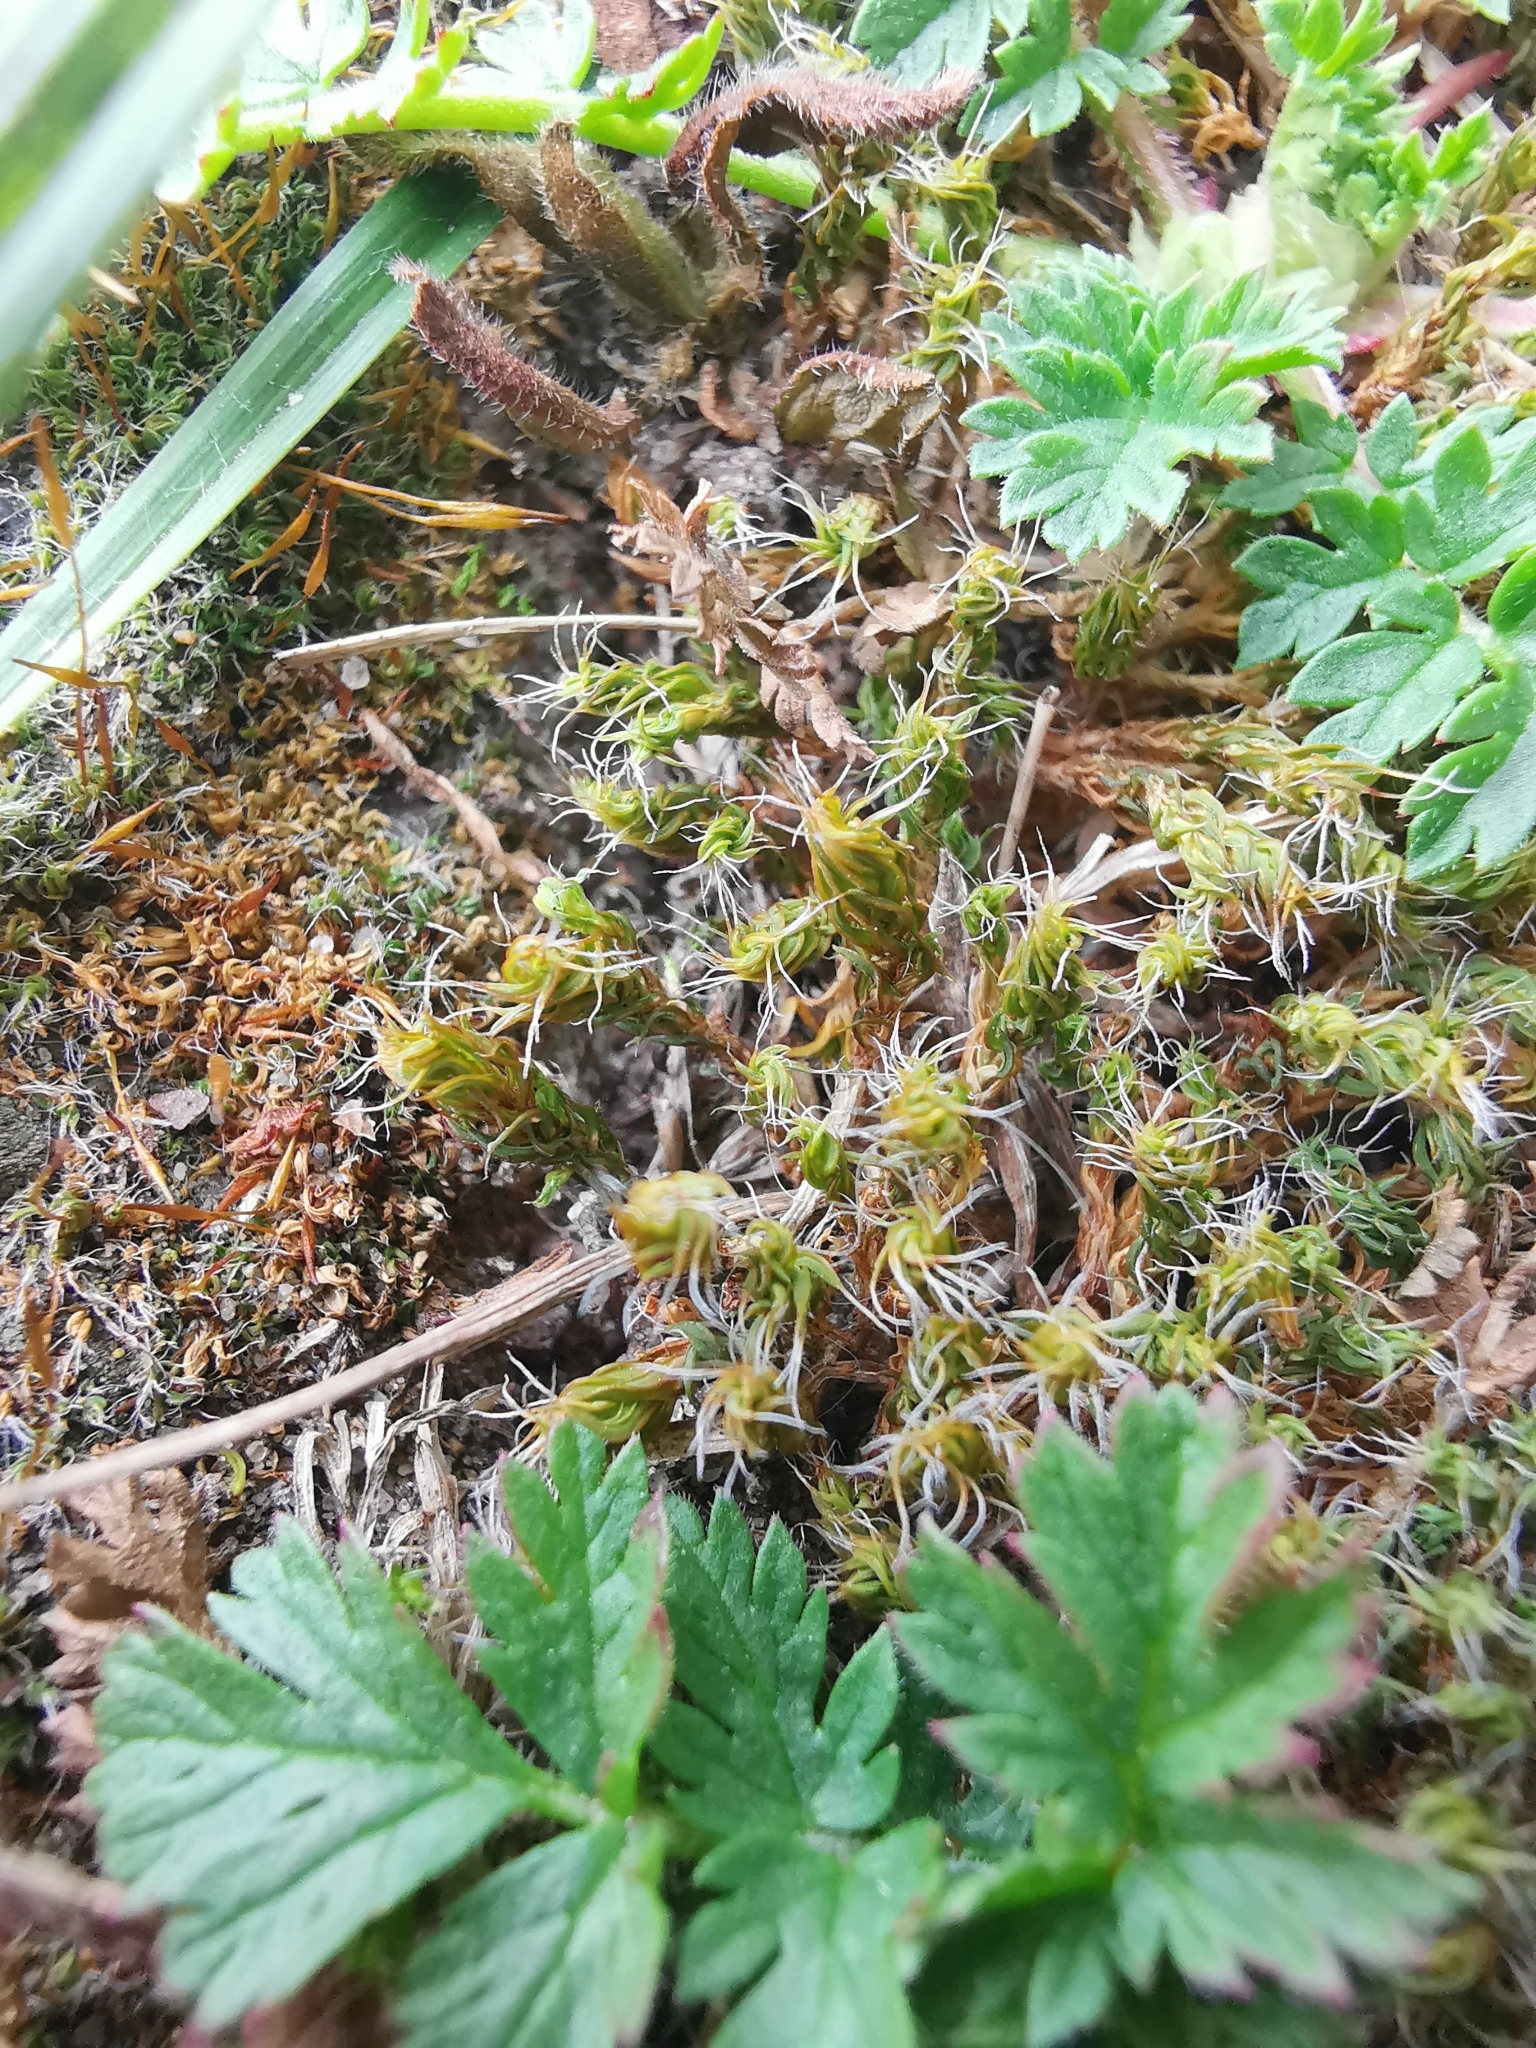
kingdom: Plantae
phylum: Bryophyta
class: Bryopsida
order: Pottiales
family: Pottiaceae
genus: Syntrichia
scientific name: Syntrichia ruralis
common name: Sidewalk screw moss
